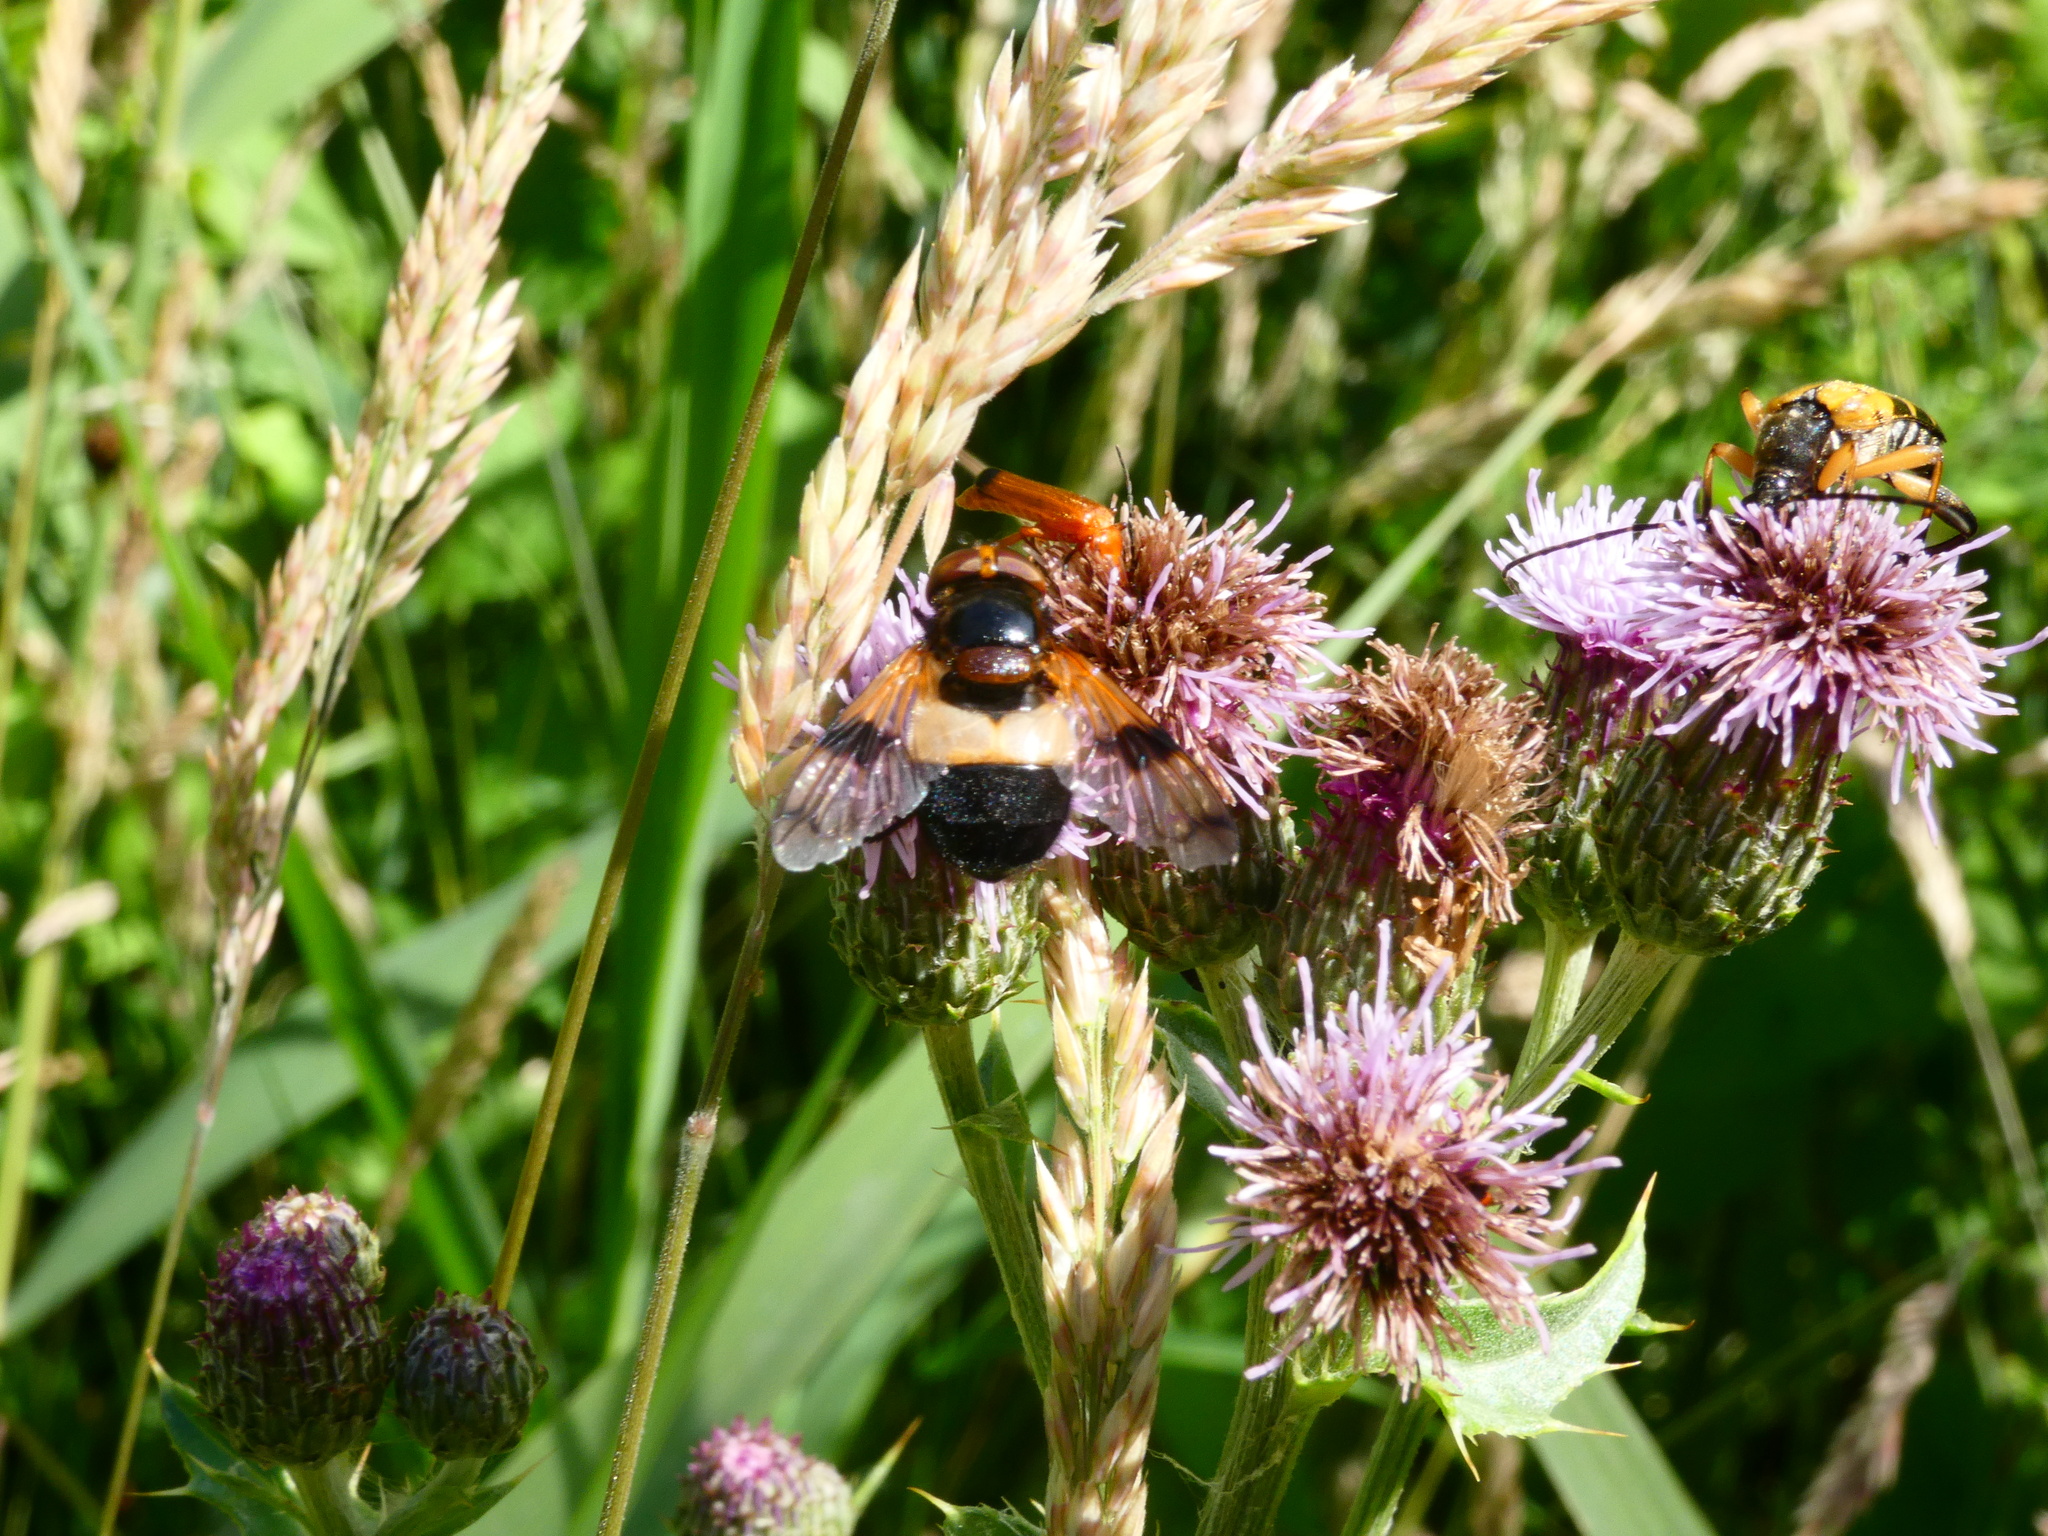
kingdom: Animalia
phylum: Arthropoda
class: Insecta
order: Diptera
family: Syrphidae
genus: Volucella
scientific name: Volucella pellucens
